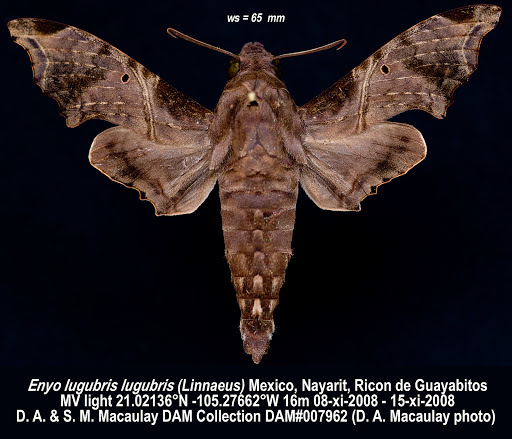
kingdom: Animalia
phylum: Arthropoda
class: Insecta
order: Lepidoptera
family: Sphingidae
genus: Enyo
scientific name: Enyo lugubris
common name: Mournful sphinx
